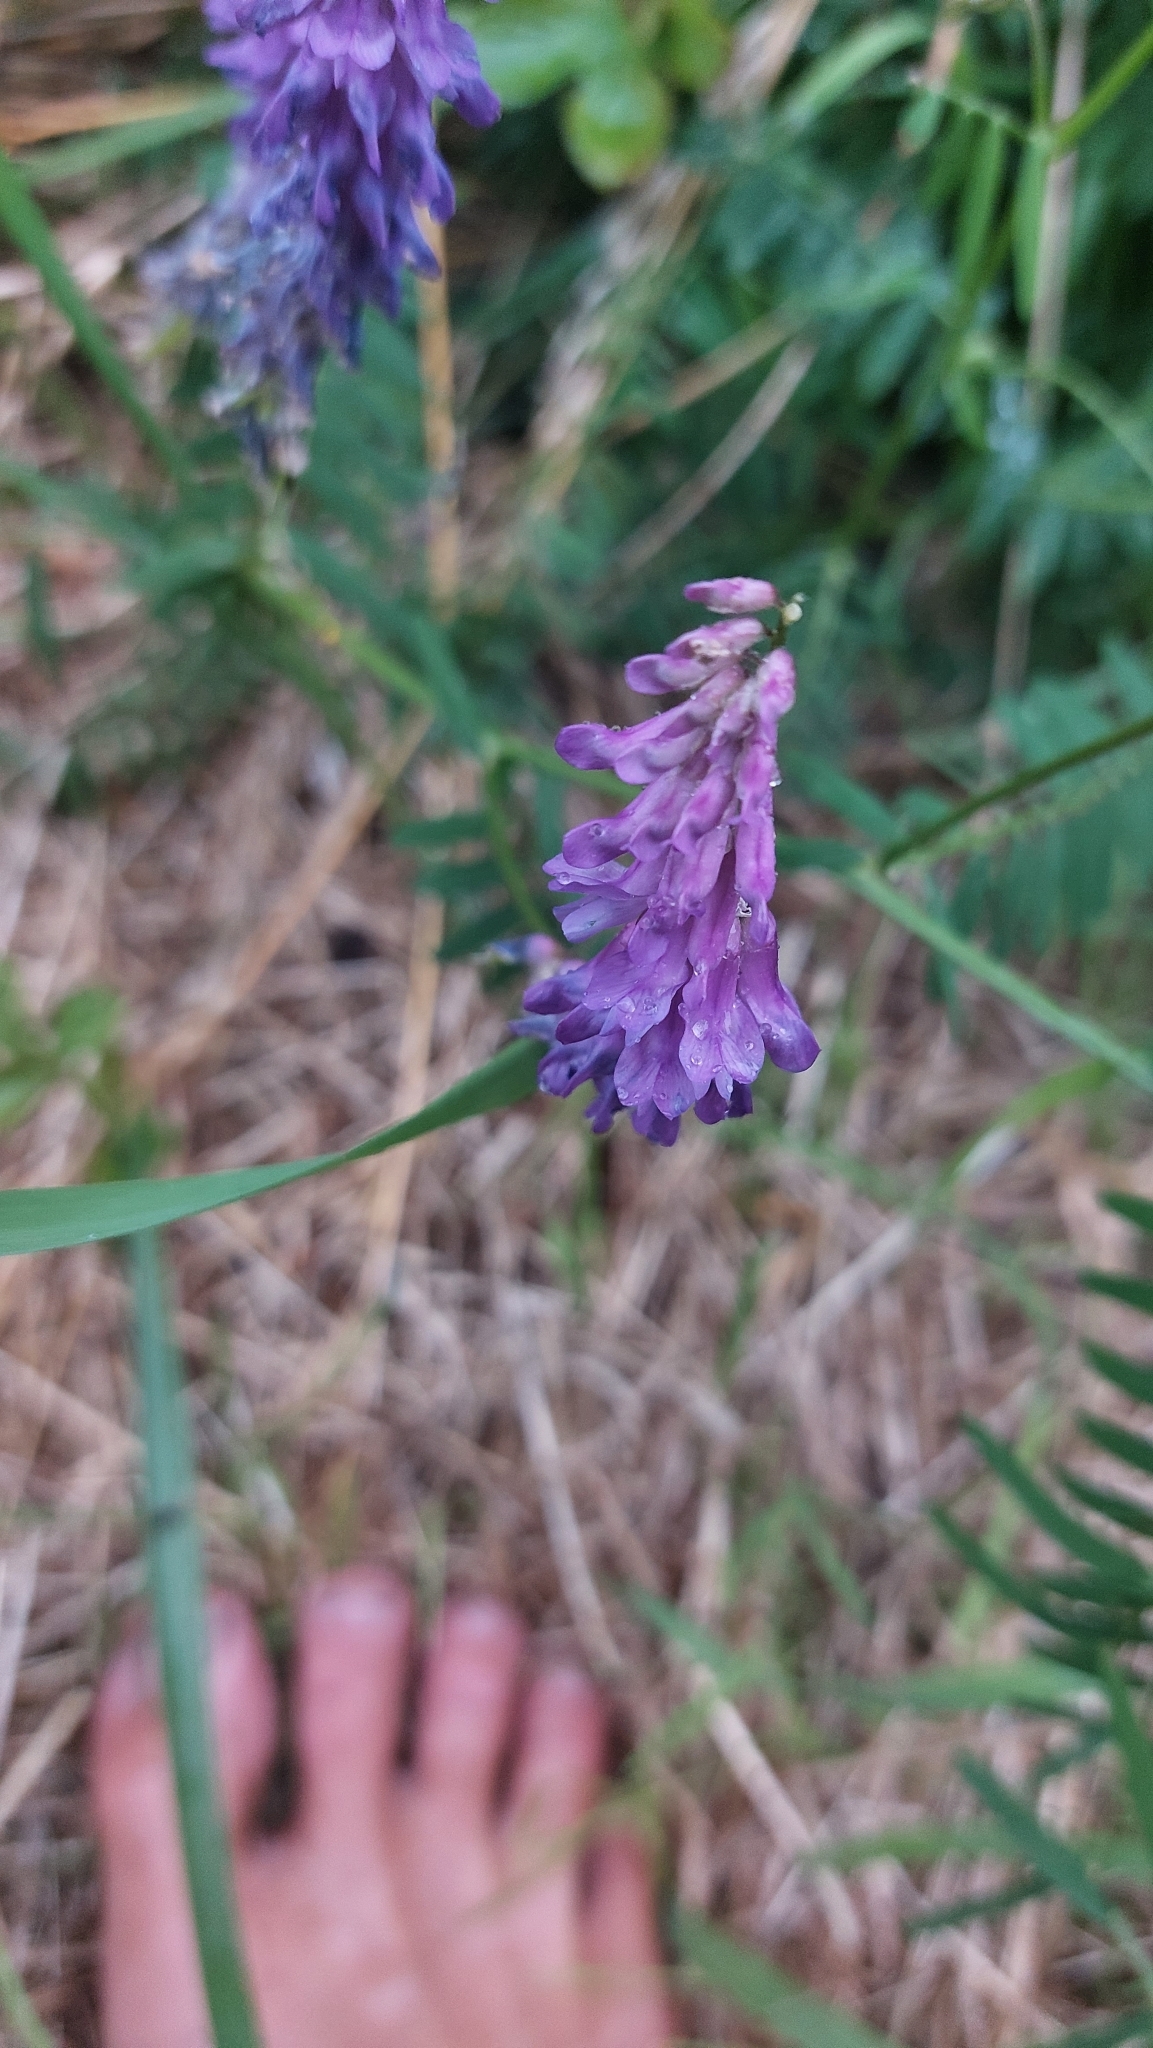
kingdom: Plantae
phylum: Tracheophyta
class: Magnoliopsida
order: Fabales
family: Fabaceae
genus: Vicia
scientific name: Vicia villosa
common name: Fodder vetch
